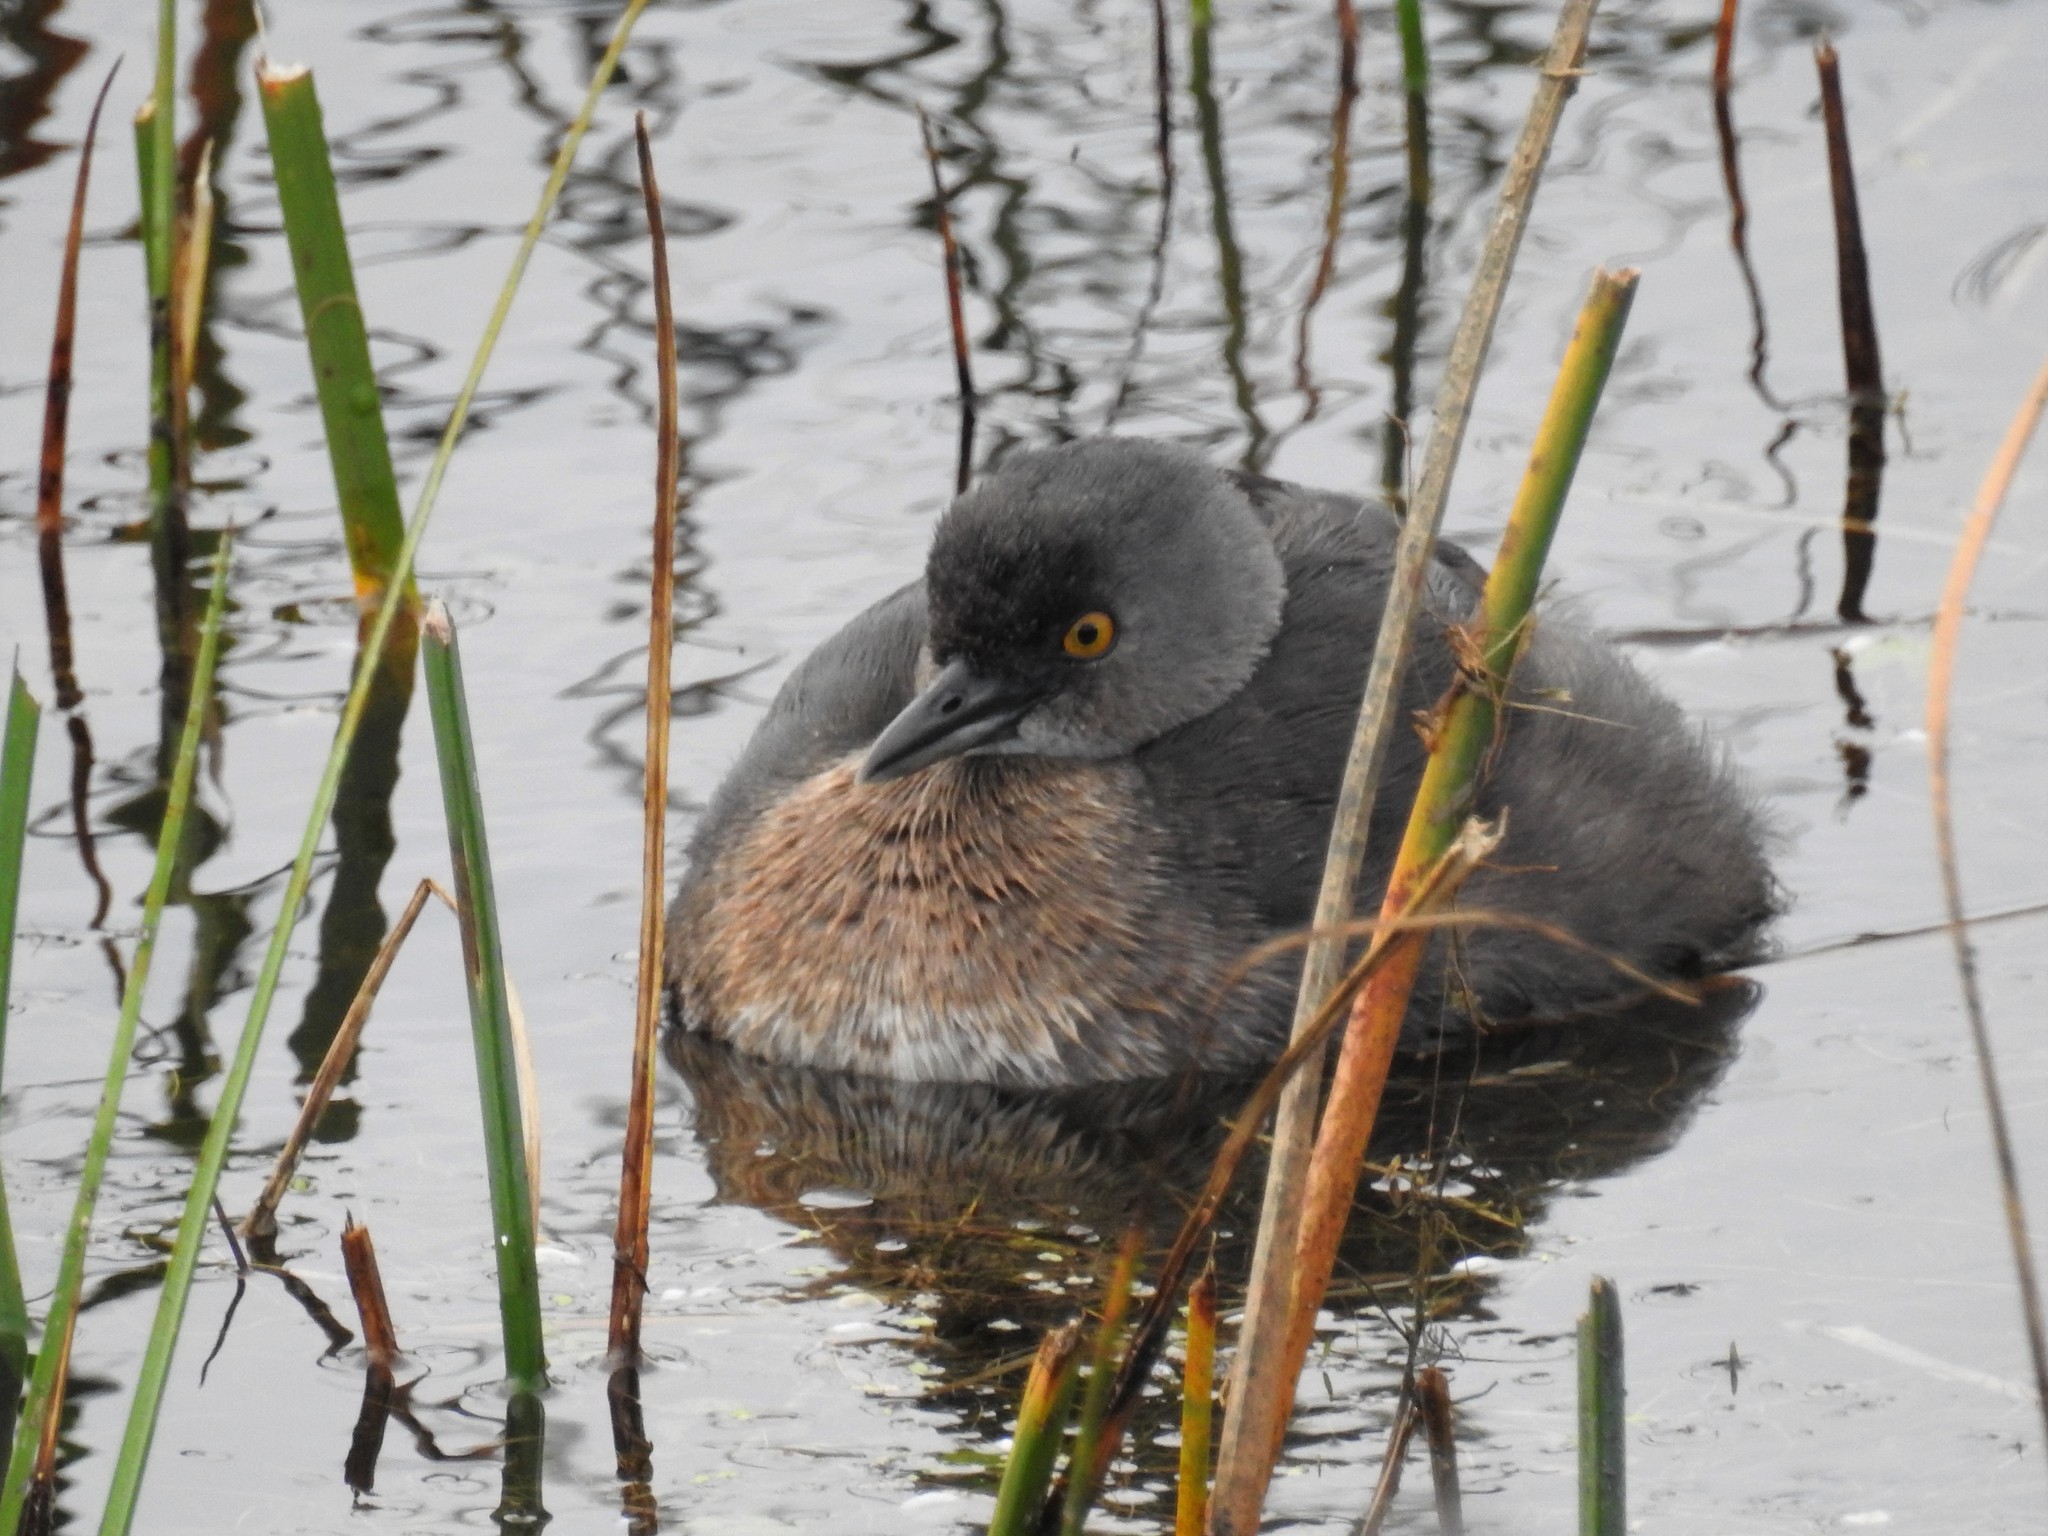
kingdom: Animalia
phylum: Chordata
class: Aves
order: Podicipediformes
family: Podicipedidae
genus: Tachybaptus
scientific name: Tachybaptus dominicus
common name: Least grebe
